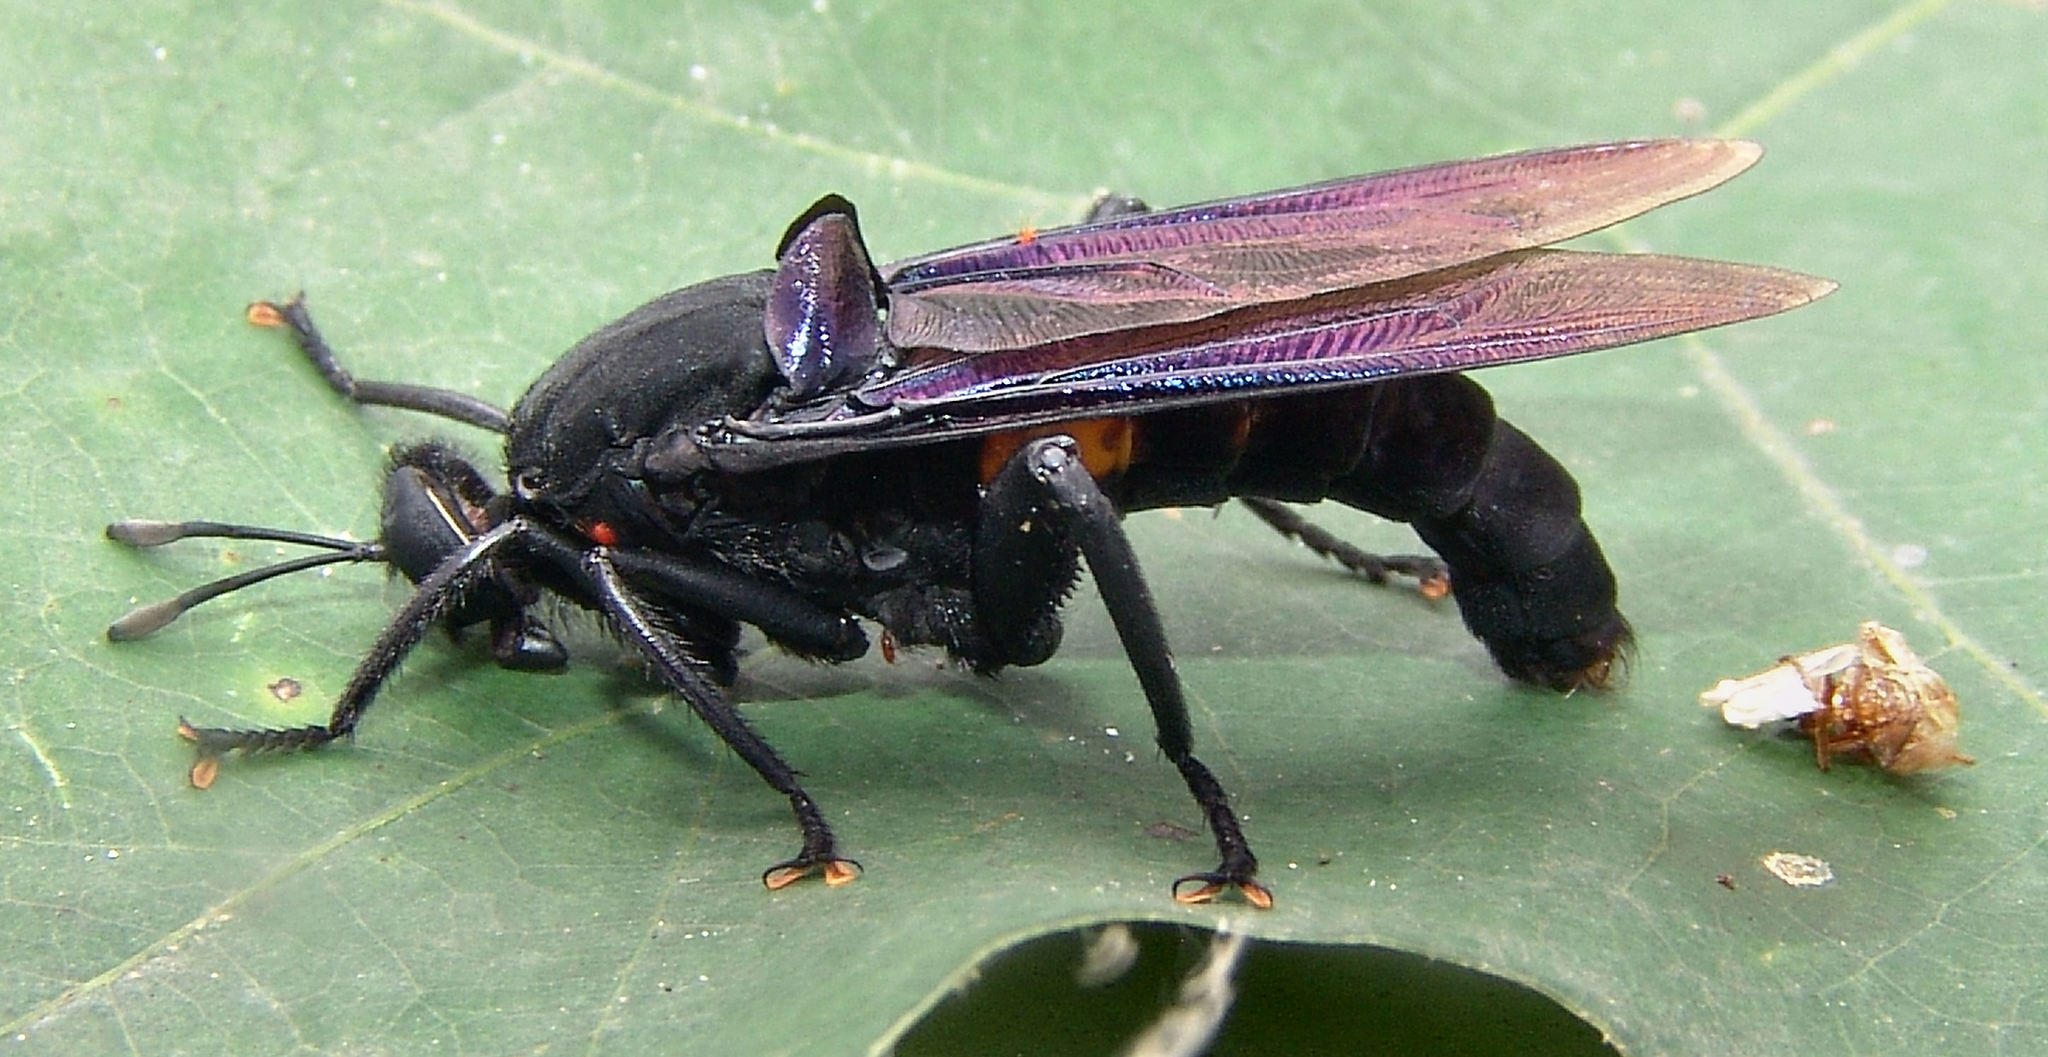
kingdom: Animalia
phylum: Arthropoda
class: Insecta
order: Diptera
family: Mydidae
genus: Mydas
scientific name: Mydas clavatus
